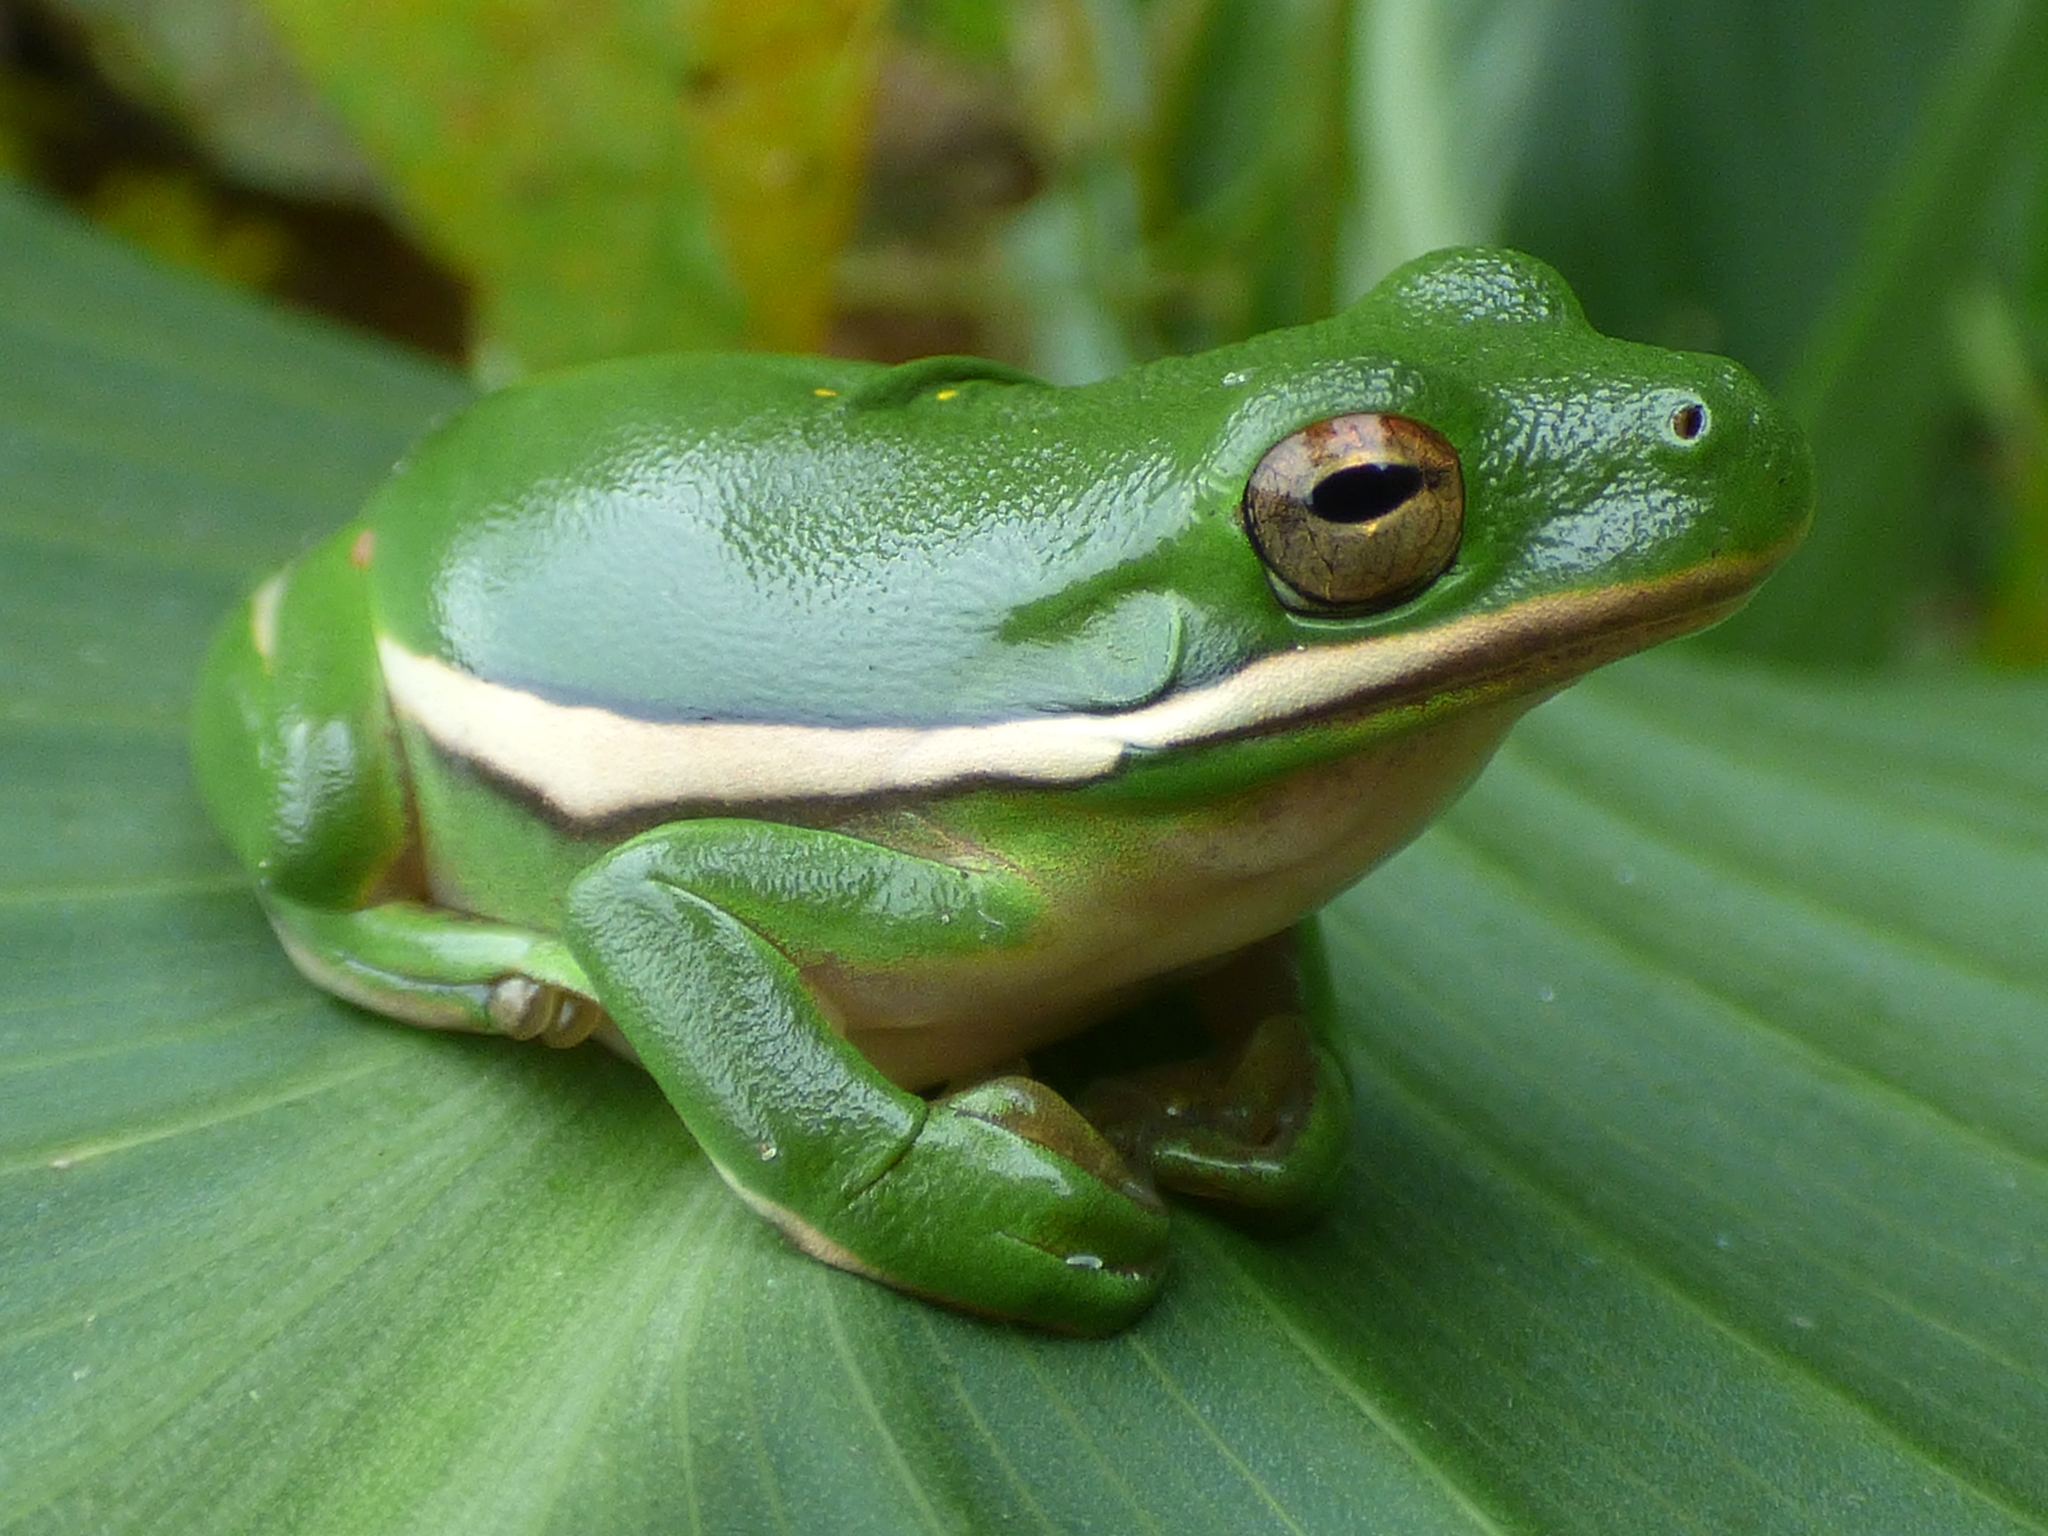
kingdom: Animalia
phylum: Chordata
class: Amphibia
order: Anura
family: Hylidae
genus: Dryophytes
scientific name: Dryophytes cinereus
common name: Green treefrog
